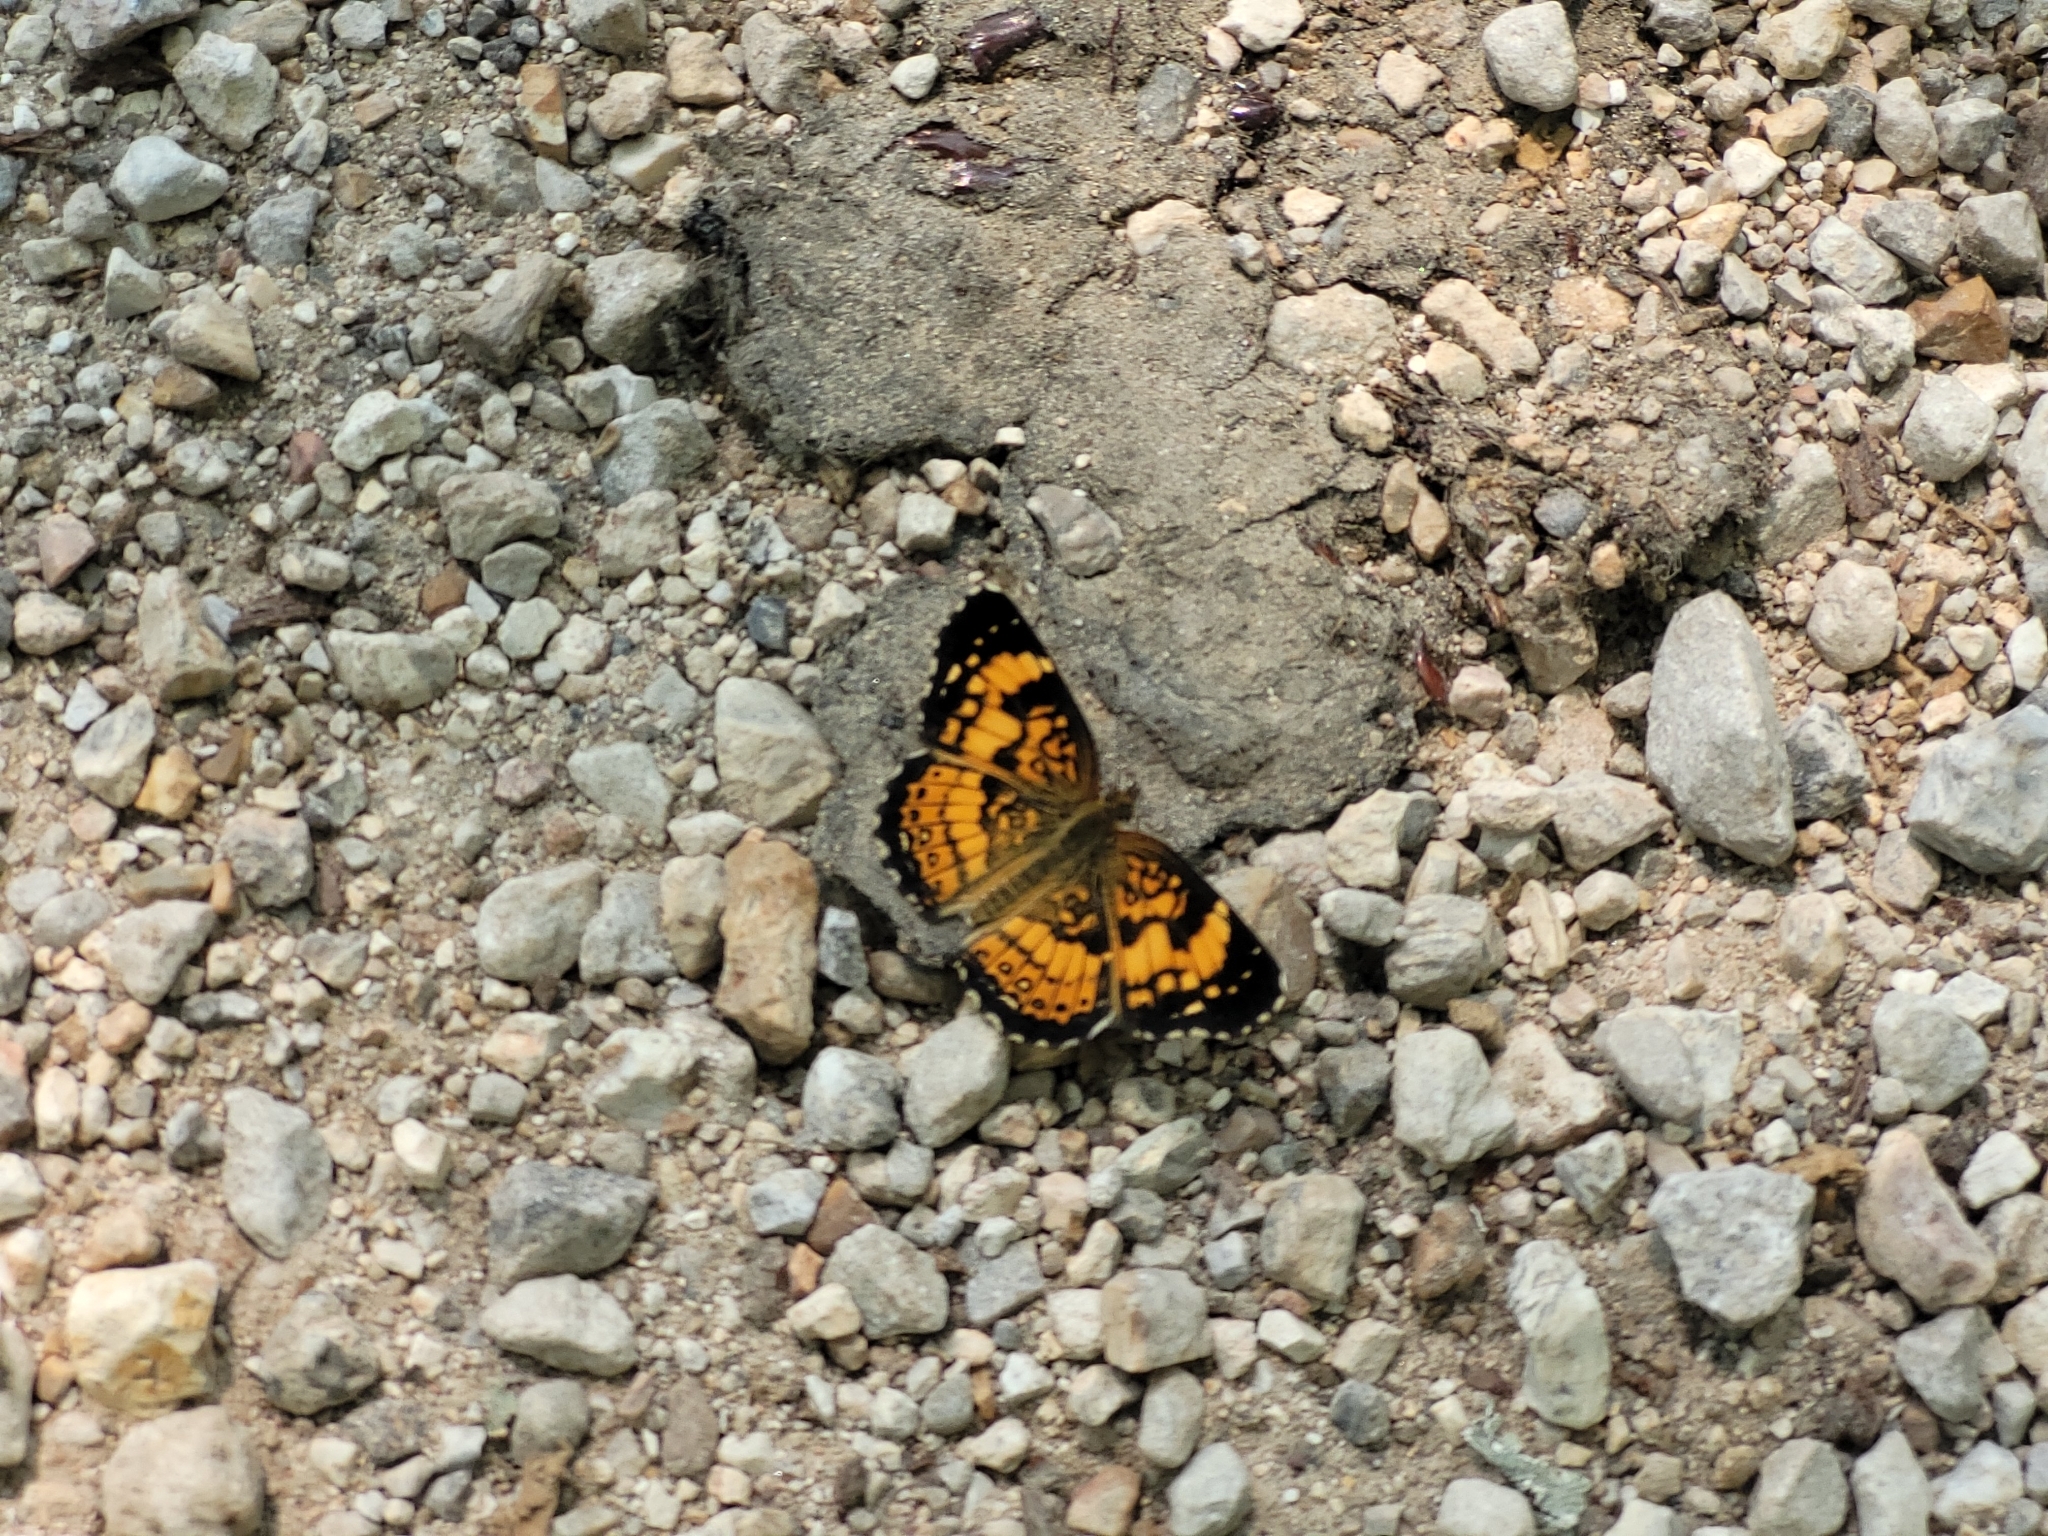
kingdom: Animalia
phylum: Arthropoda
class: Insecta
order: Lepidoptera
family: Nymphalidae
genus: Chlosyne
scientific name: Chlosyne nycteis
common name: Silvery checkerspot
